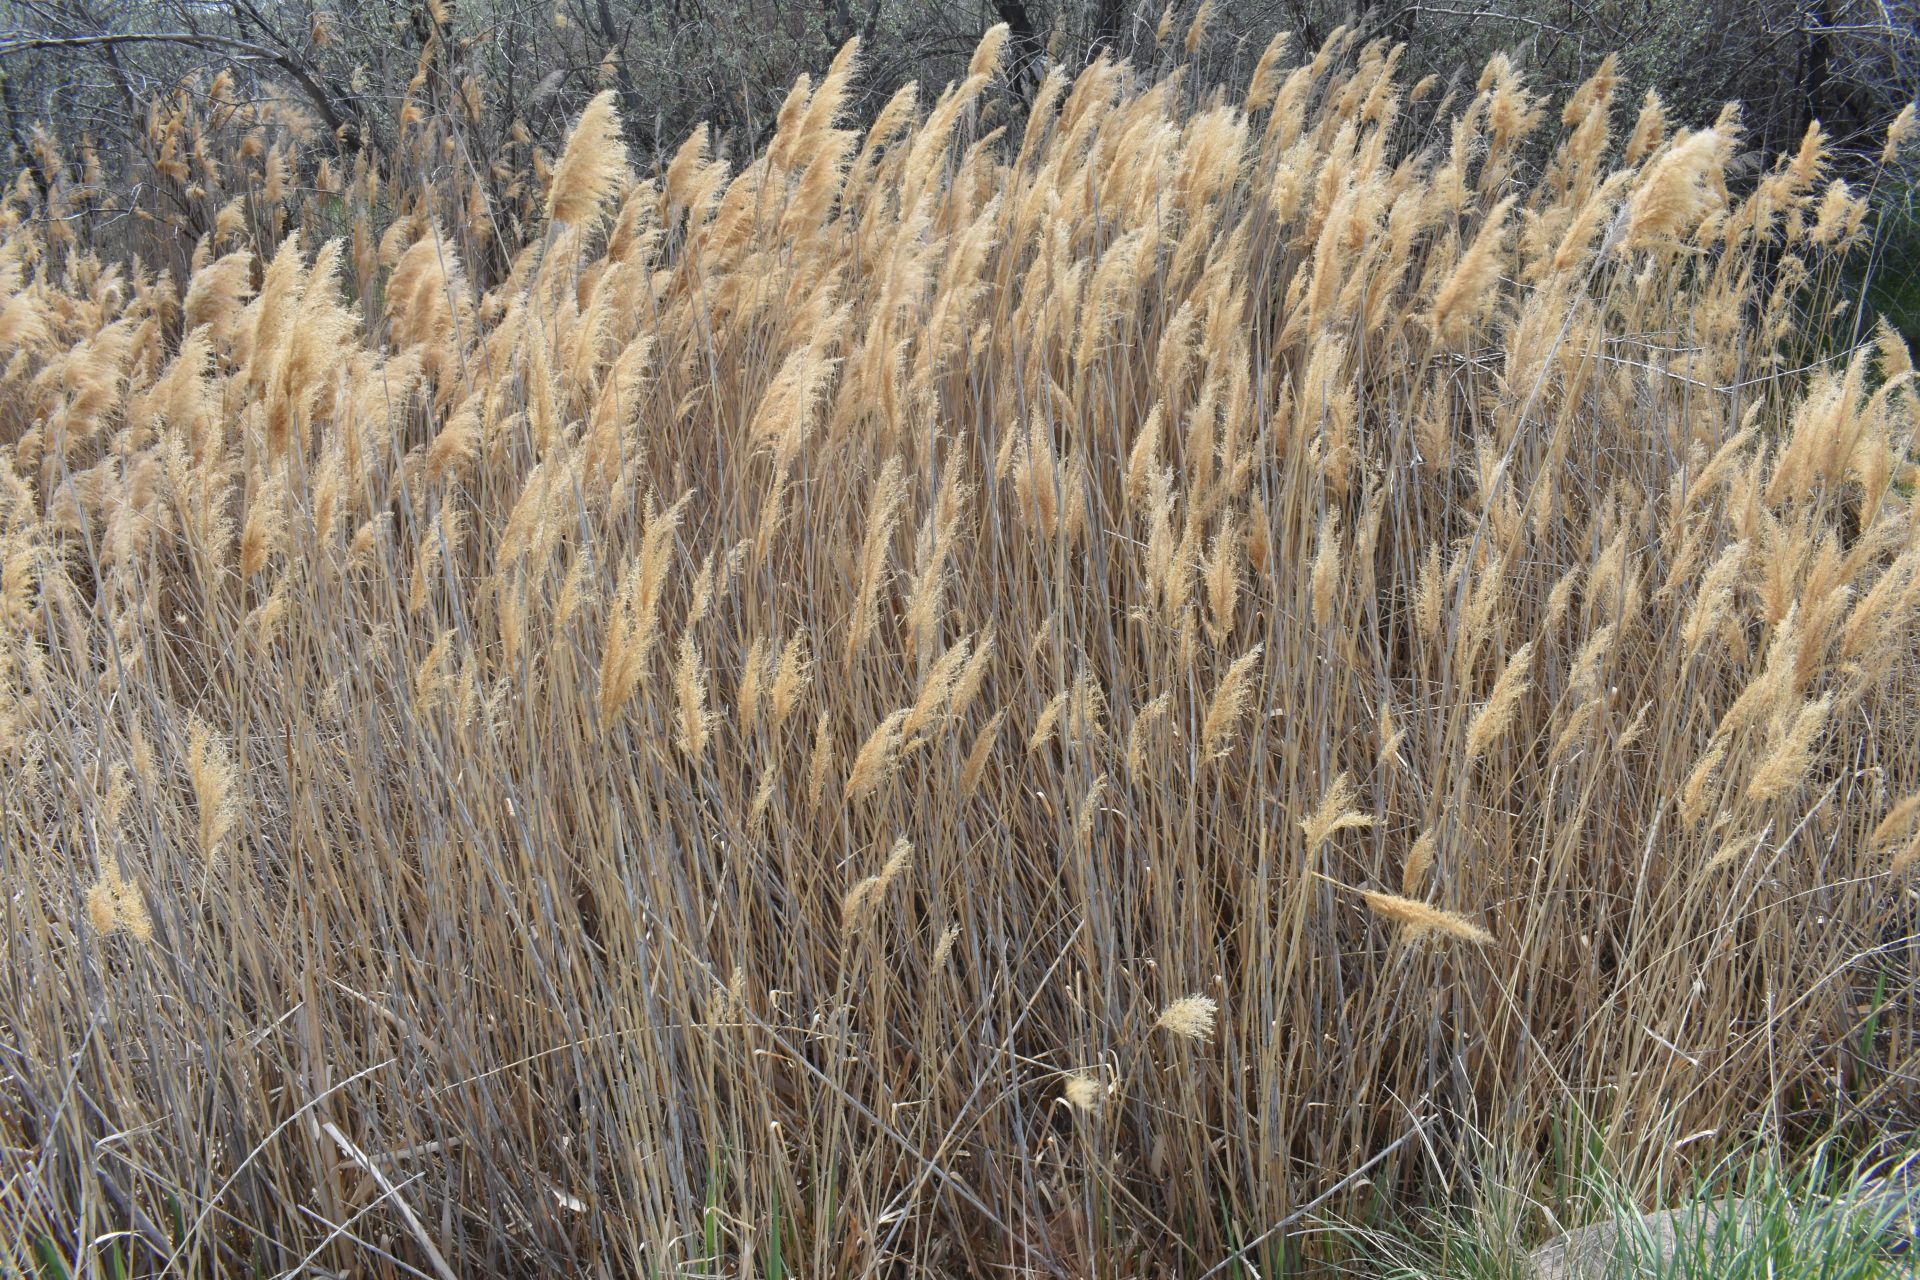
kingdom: Plantae
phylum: Tracheophyta
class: Liliopsida
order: Poales
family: Poaceae
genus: Phragmites
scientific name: Phragmites australis
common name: Common reed
